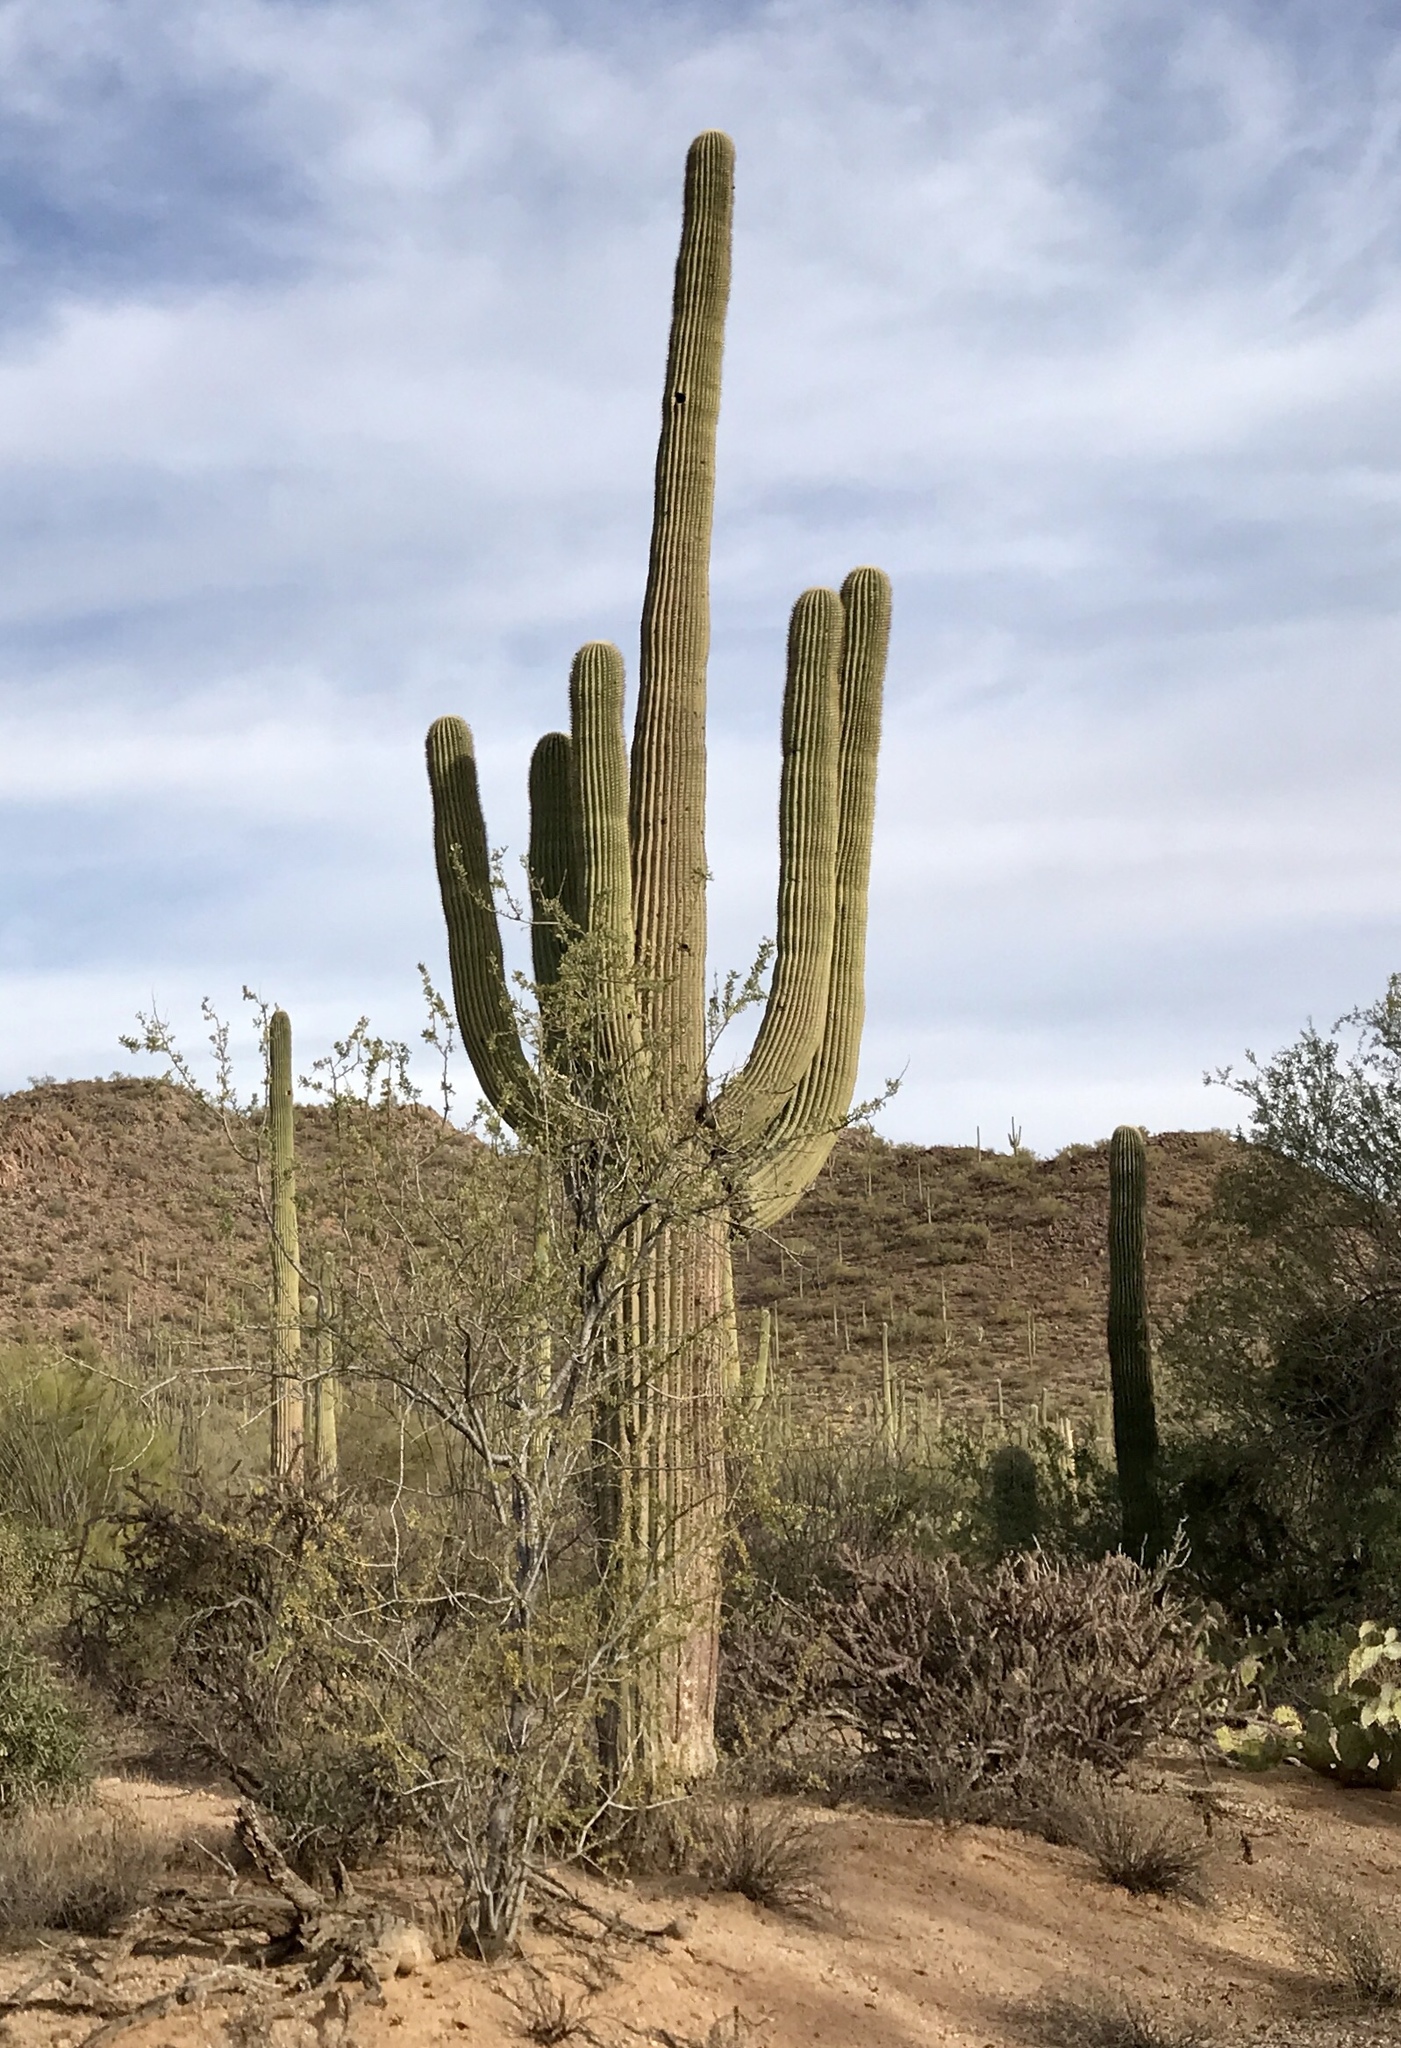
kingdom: Plantae
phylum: Tracheophyta
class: Magnoliopsida
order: Caryophyllales
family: Cactaceae
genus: Carnegiea
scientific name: Carnegiea gigantea
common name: Saguaro
